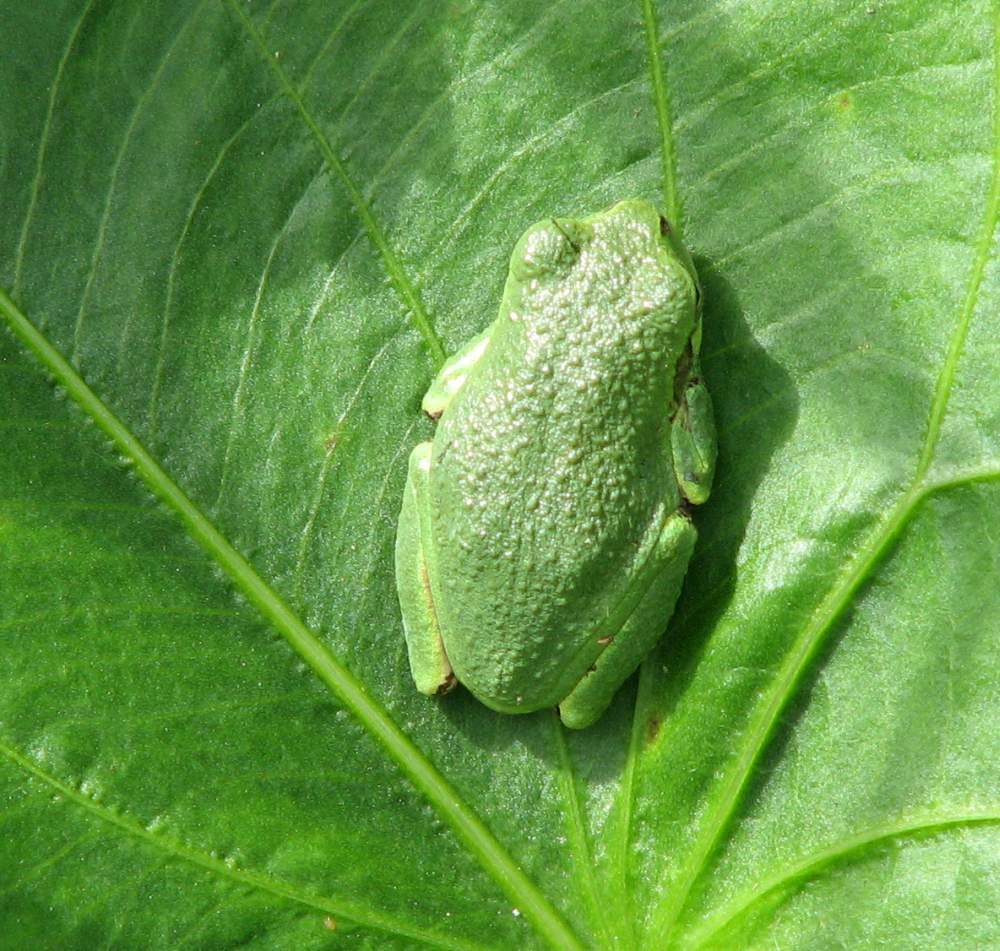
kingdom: Animalia
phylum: Chordata
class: Amphibia
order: Anura
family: Hylidae
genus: Dryophytes
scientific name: Dryophytes versicolor
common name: Gray treefrog
